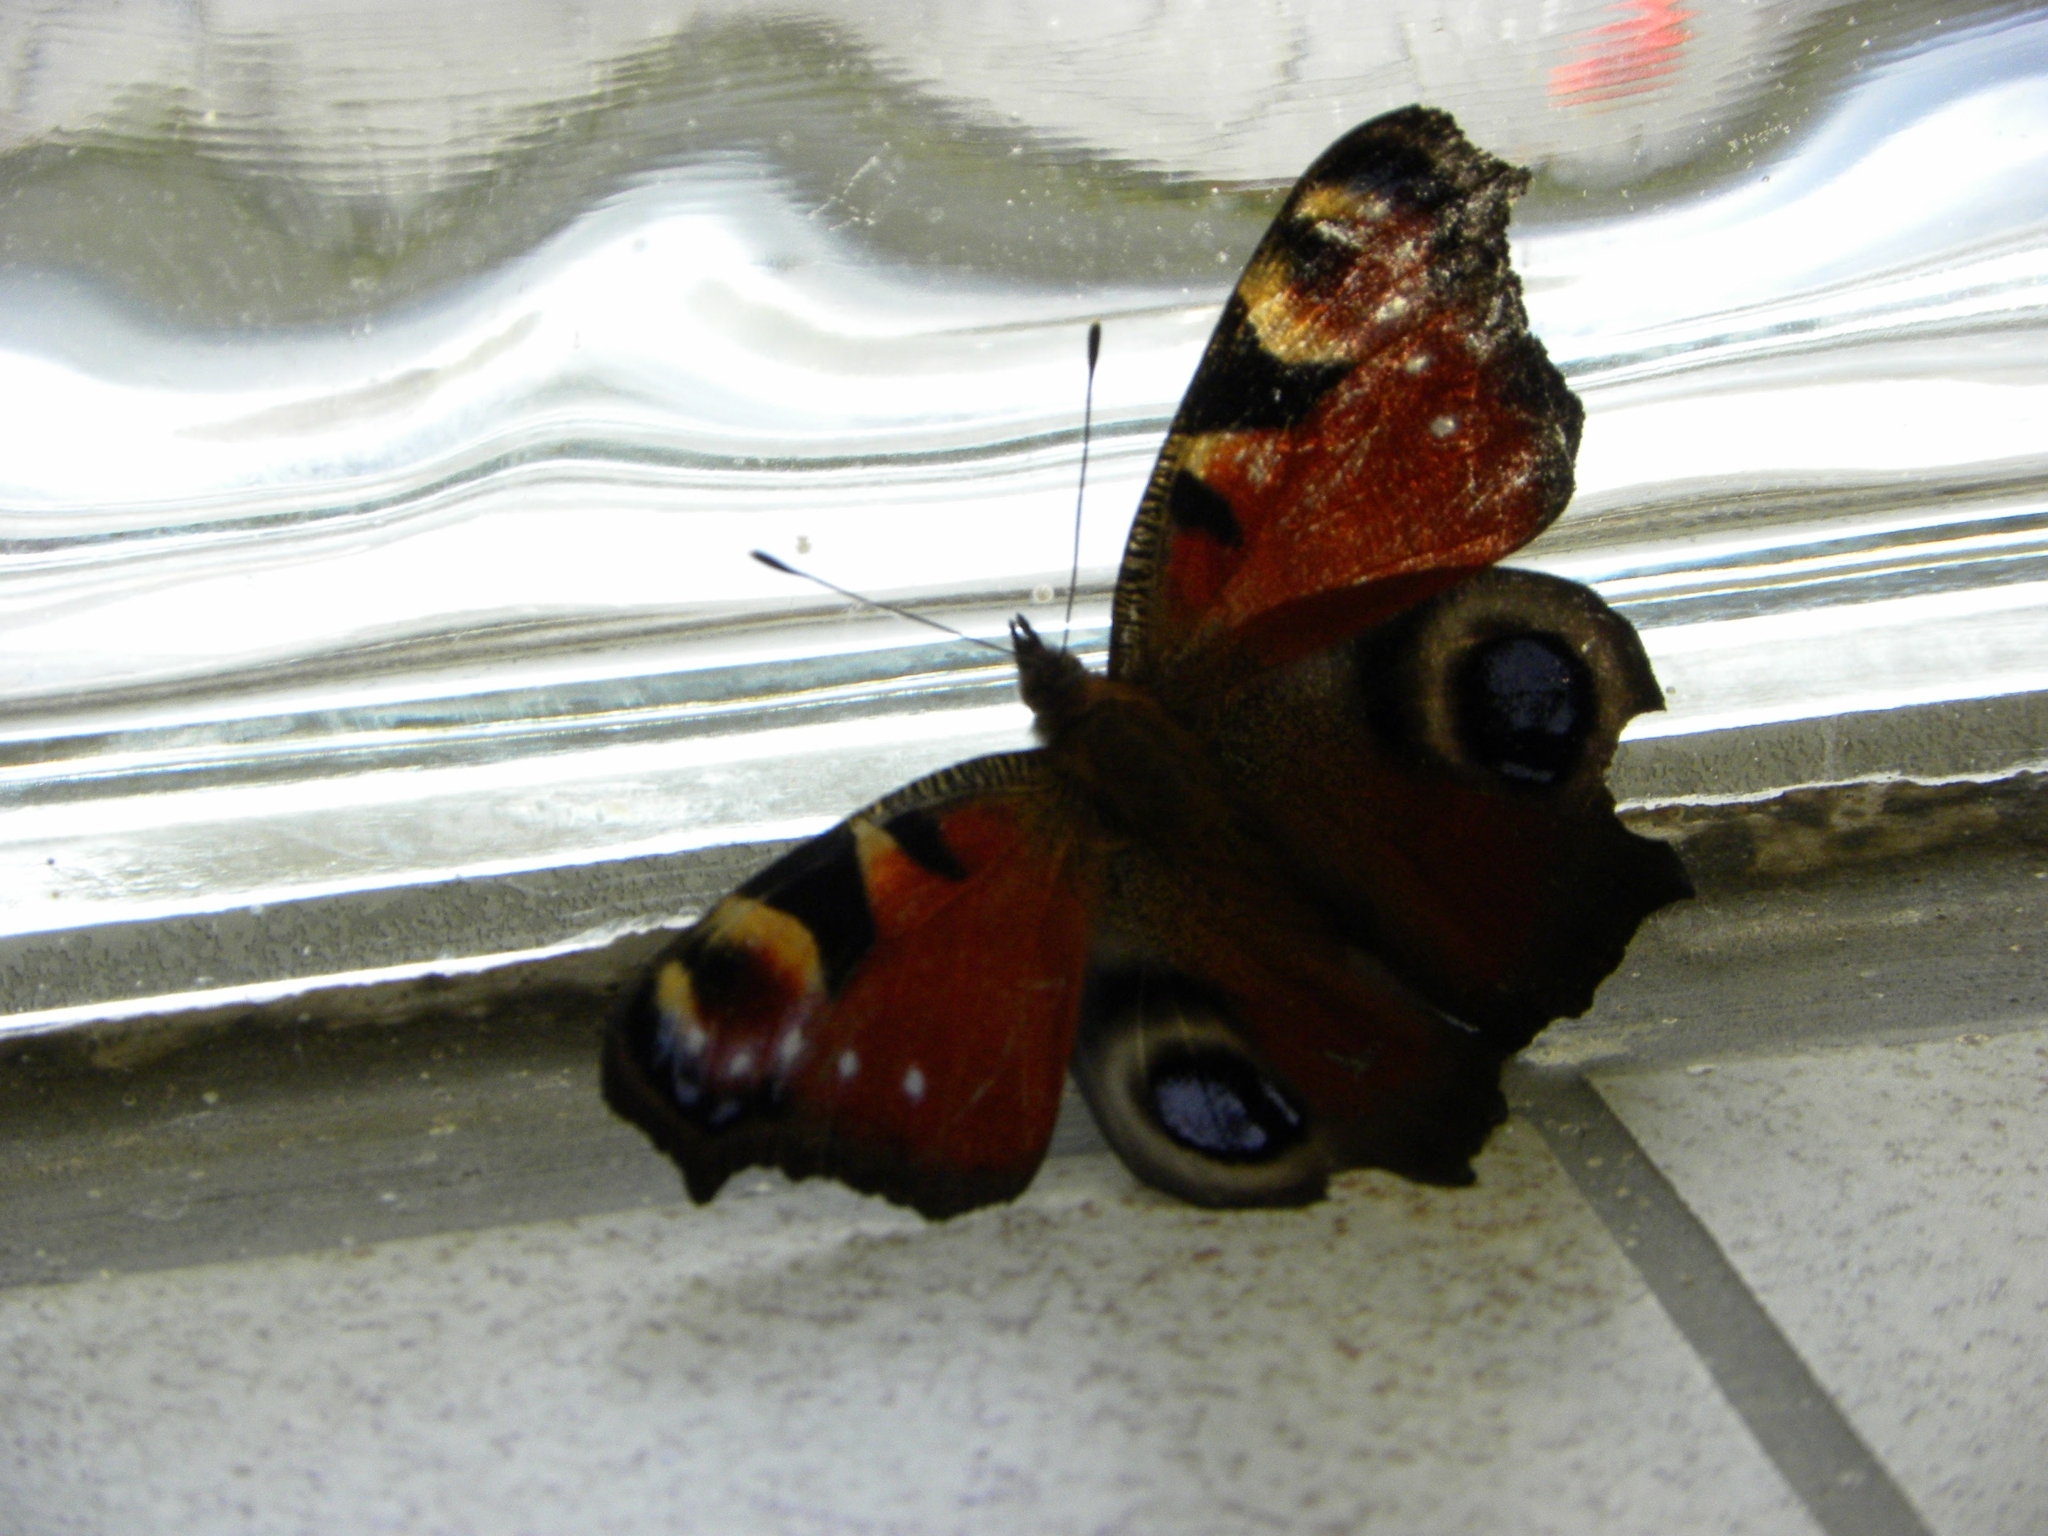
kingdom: Animalia
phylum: Arthropoda
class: Insecta
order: Lepidoptera
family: Nymphalidae
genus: Aglais
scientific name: Aglais io
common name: Peacock
